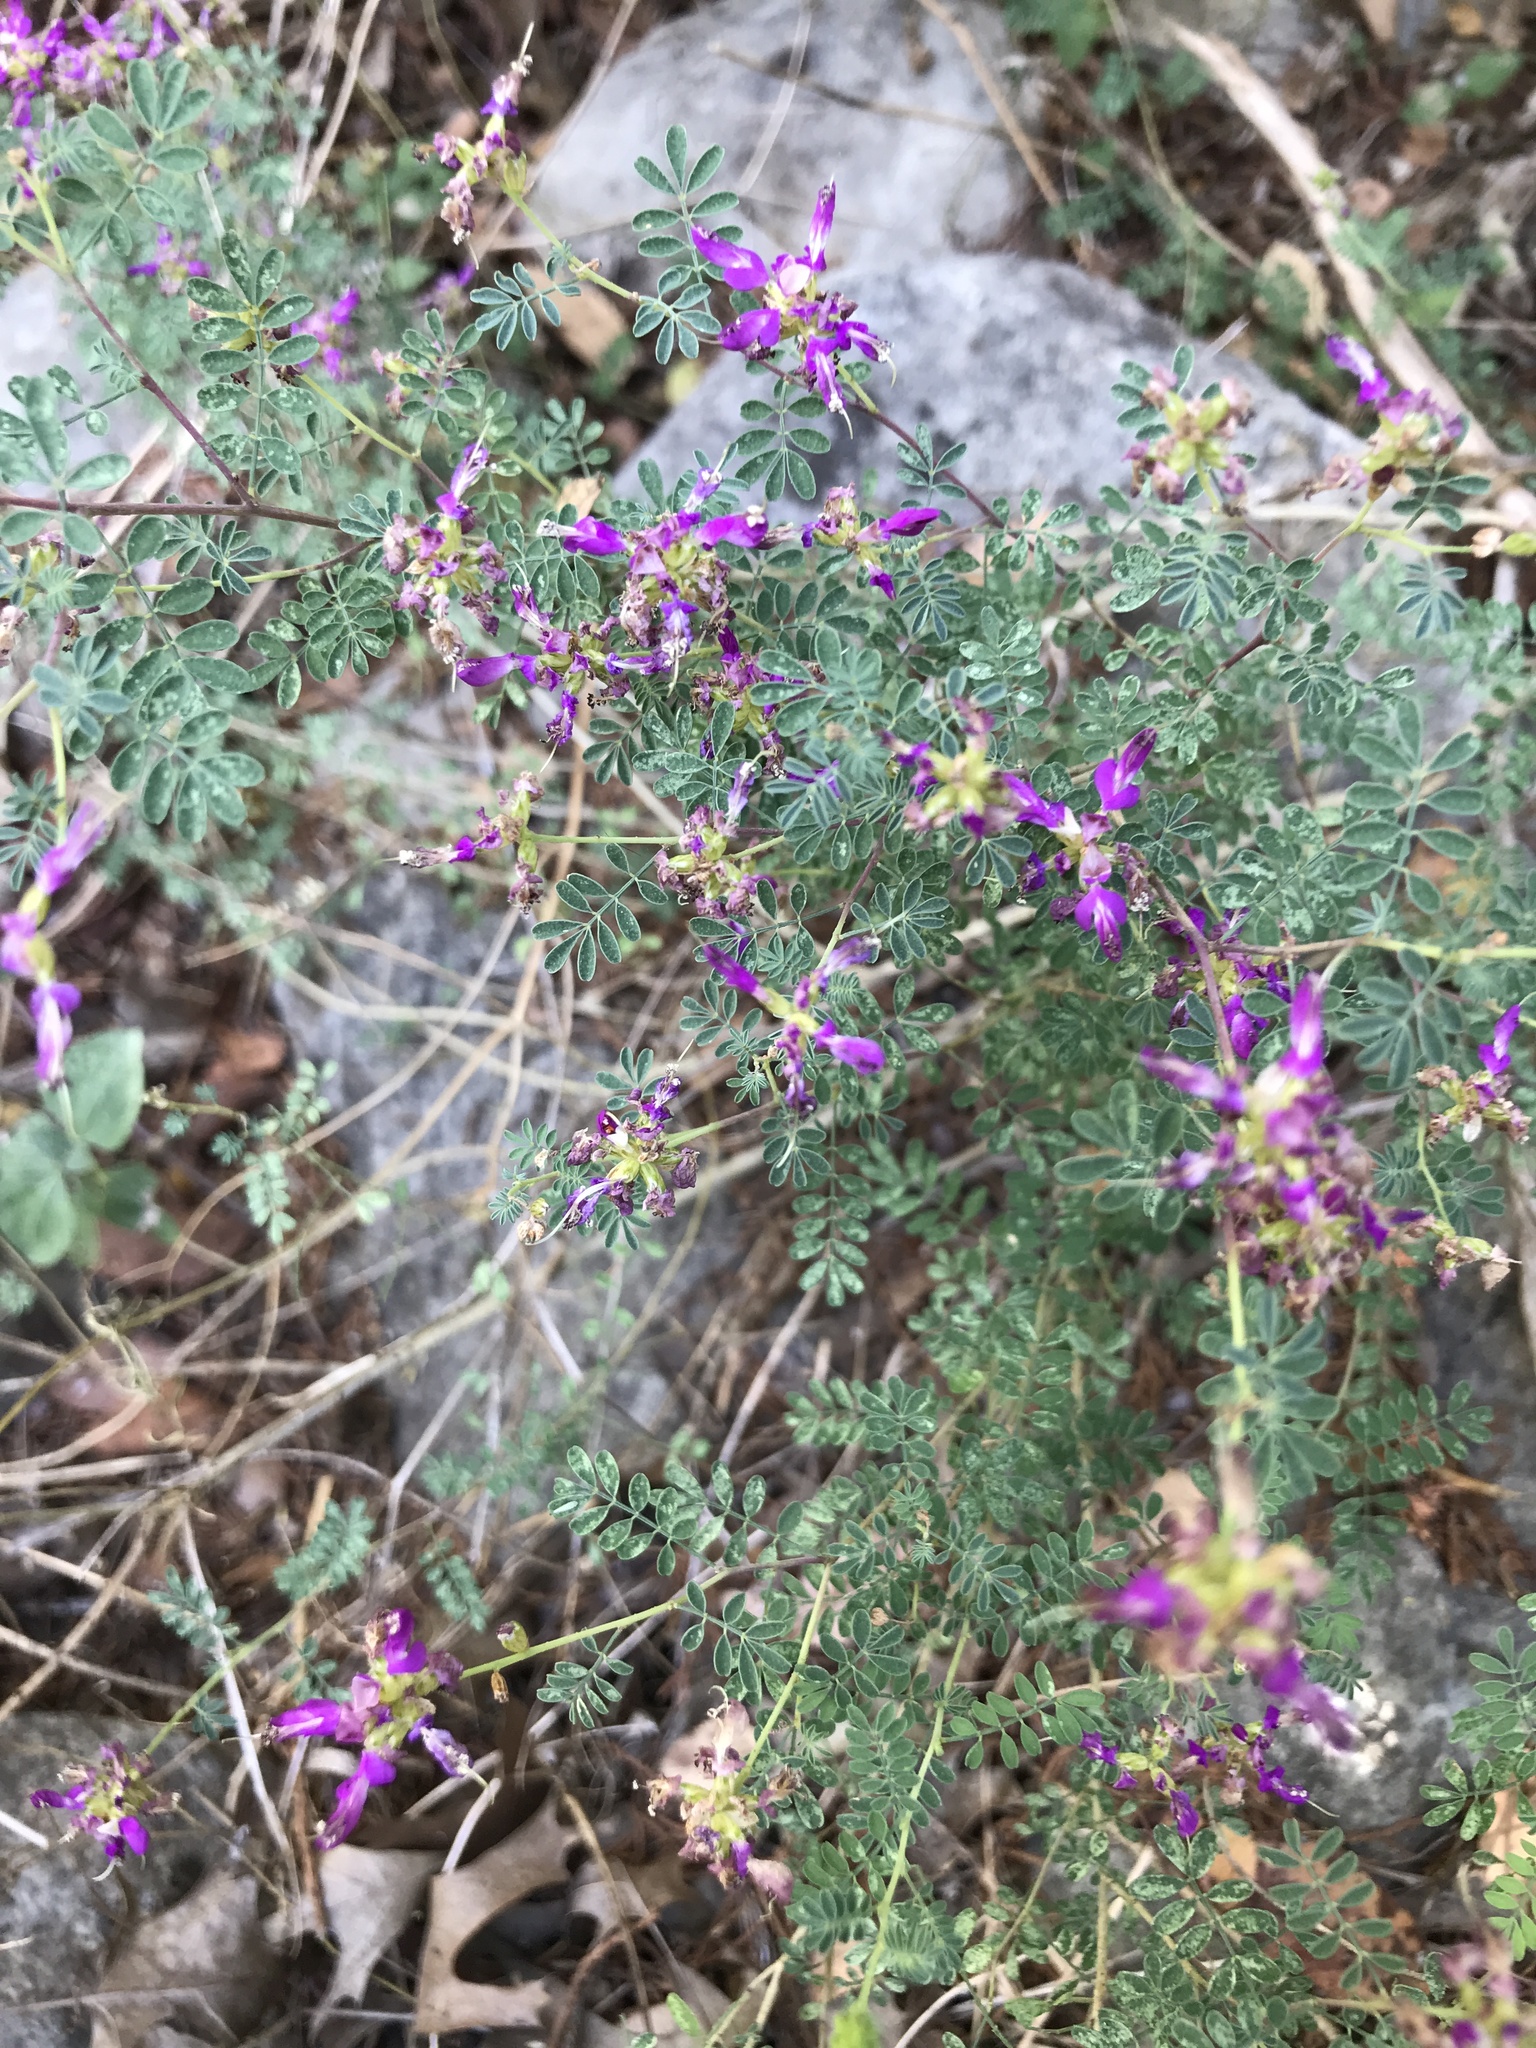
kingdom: Plantae
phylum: Tracheophyta
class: Magnoliopsida
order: Fabales
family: Fabaceae
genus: Dalea
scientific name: Dalea frutescens
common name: Black dalea
